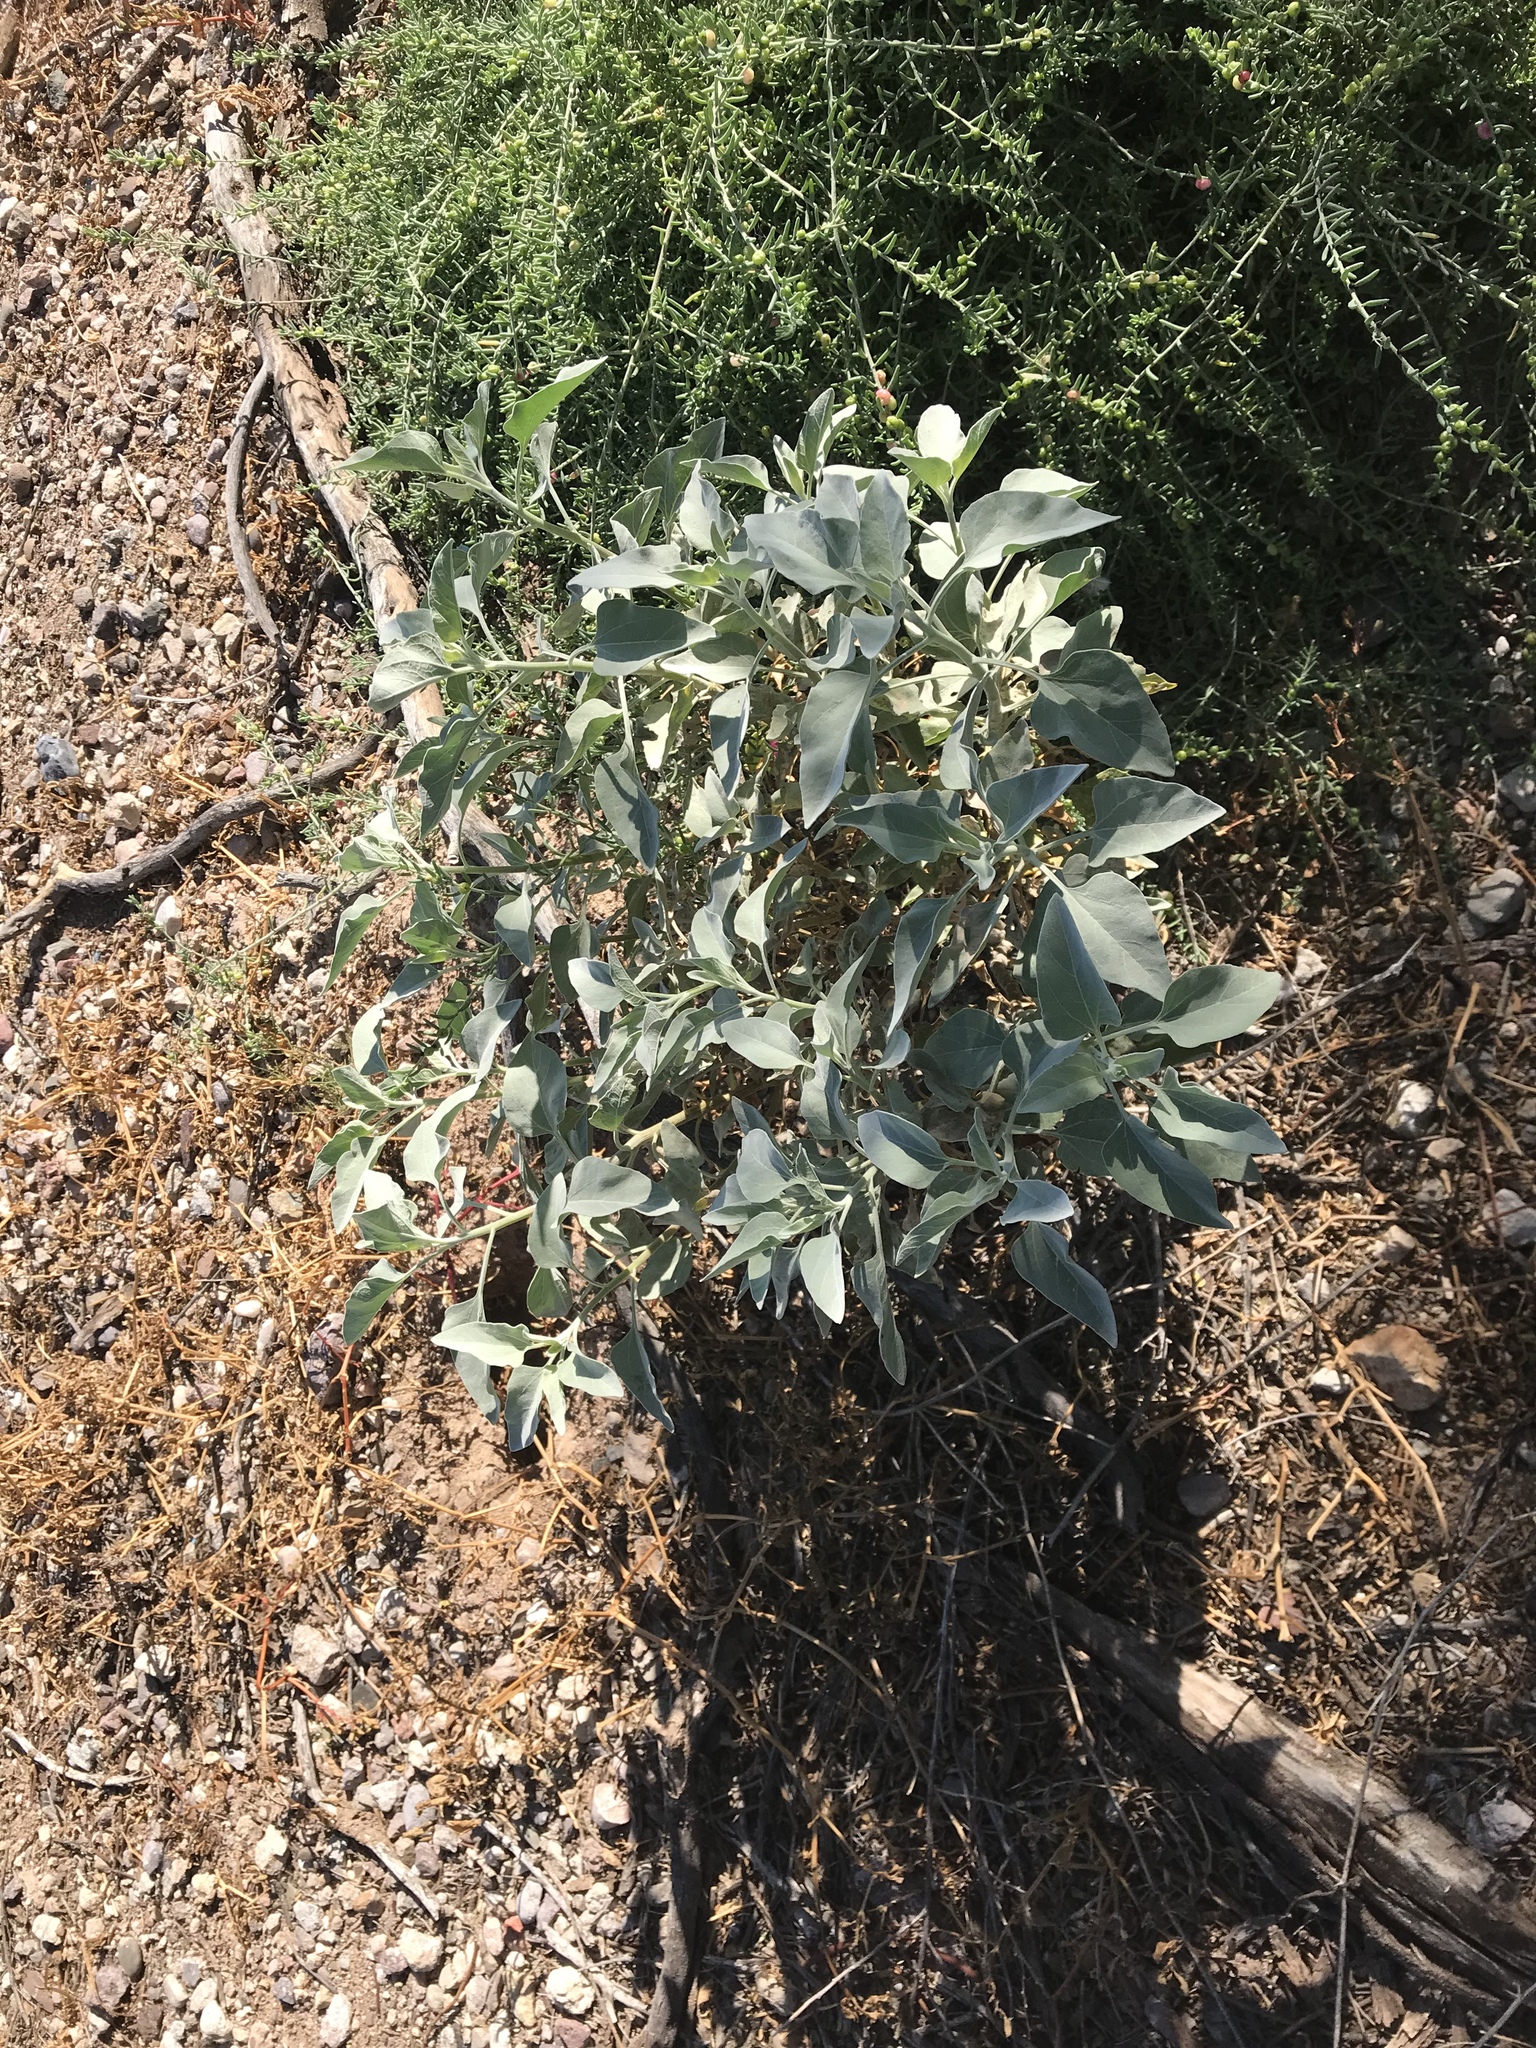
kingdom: Plantae
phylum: Tracheophyta
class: Magnoliopsida
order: Asterales
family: Asteraceae
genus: Encelia
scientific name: Encelia farinosa
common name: Brittlebush
